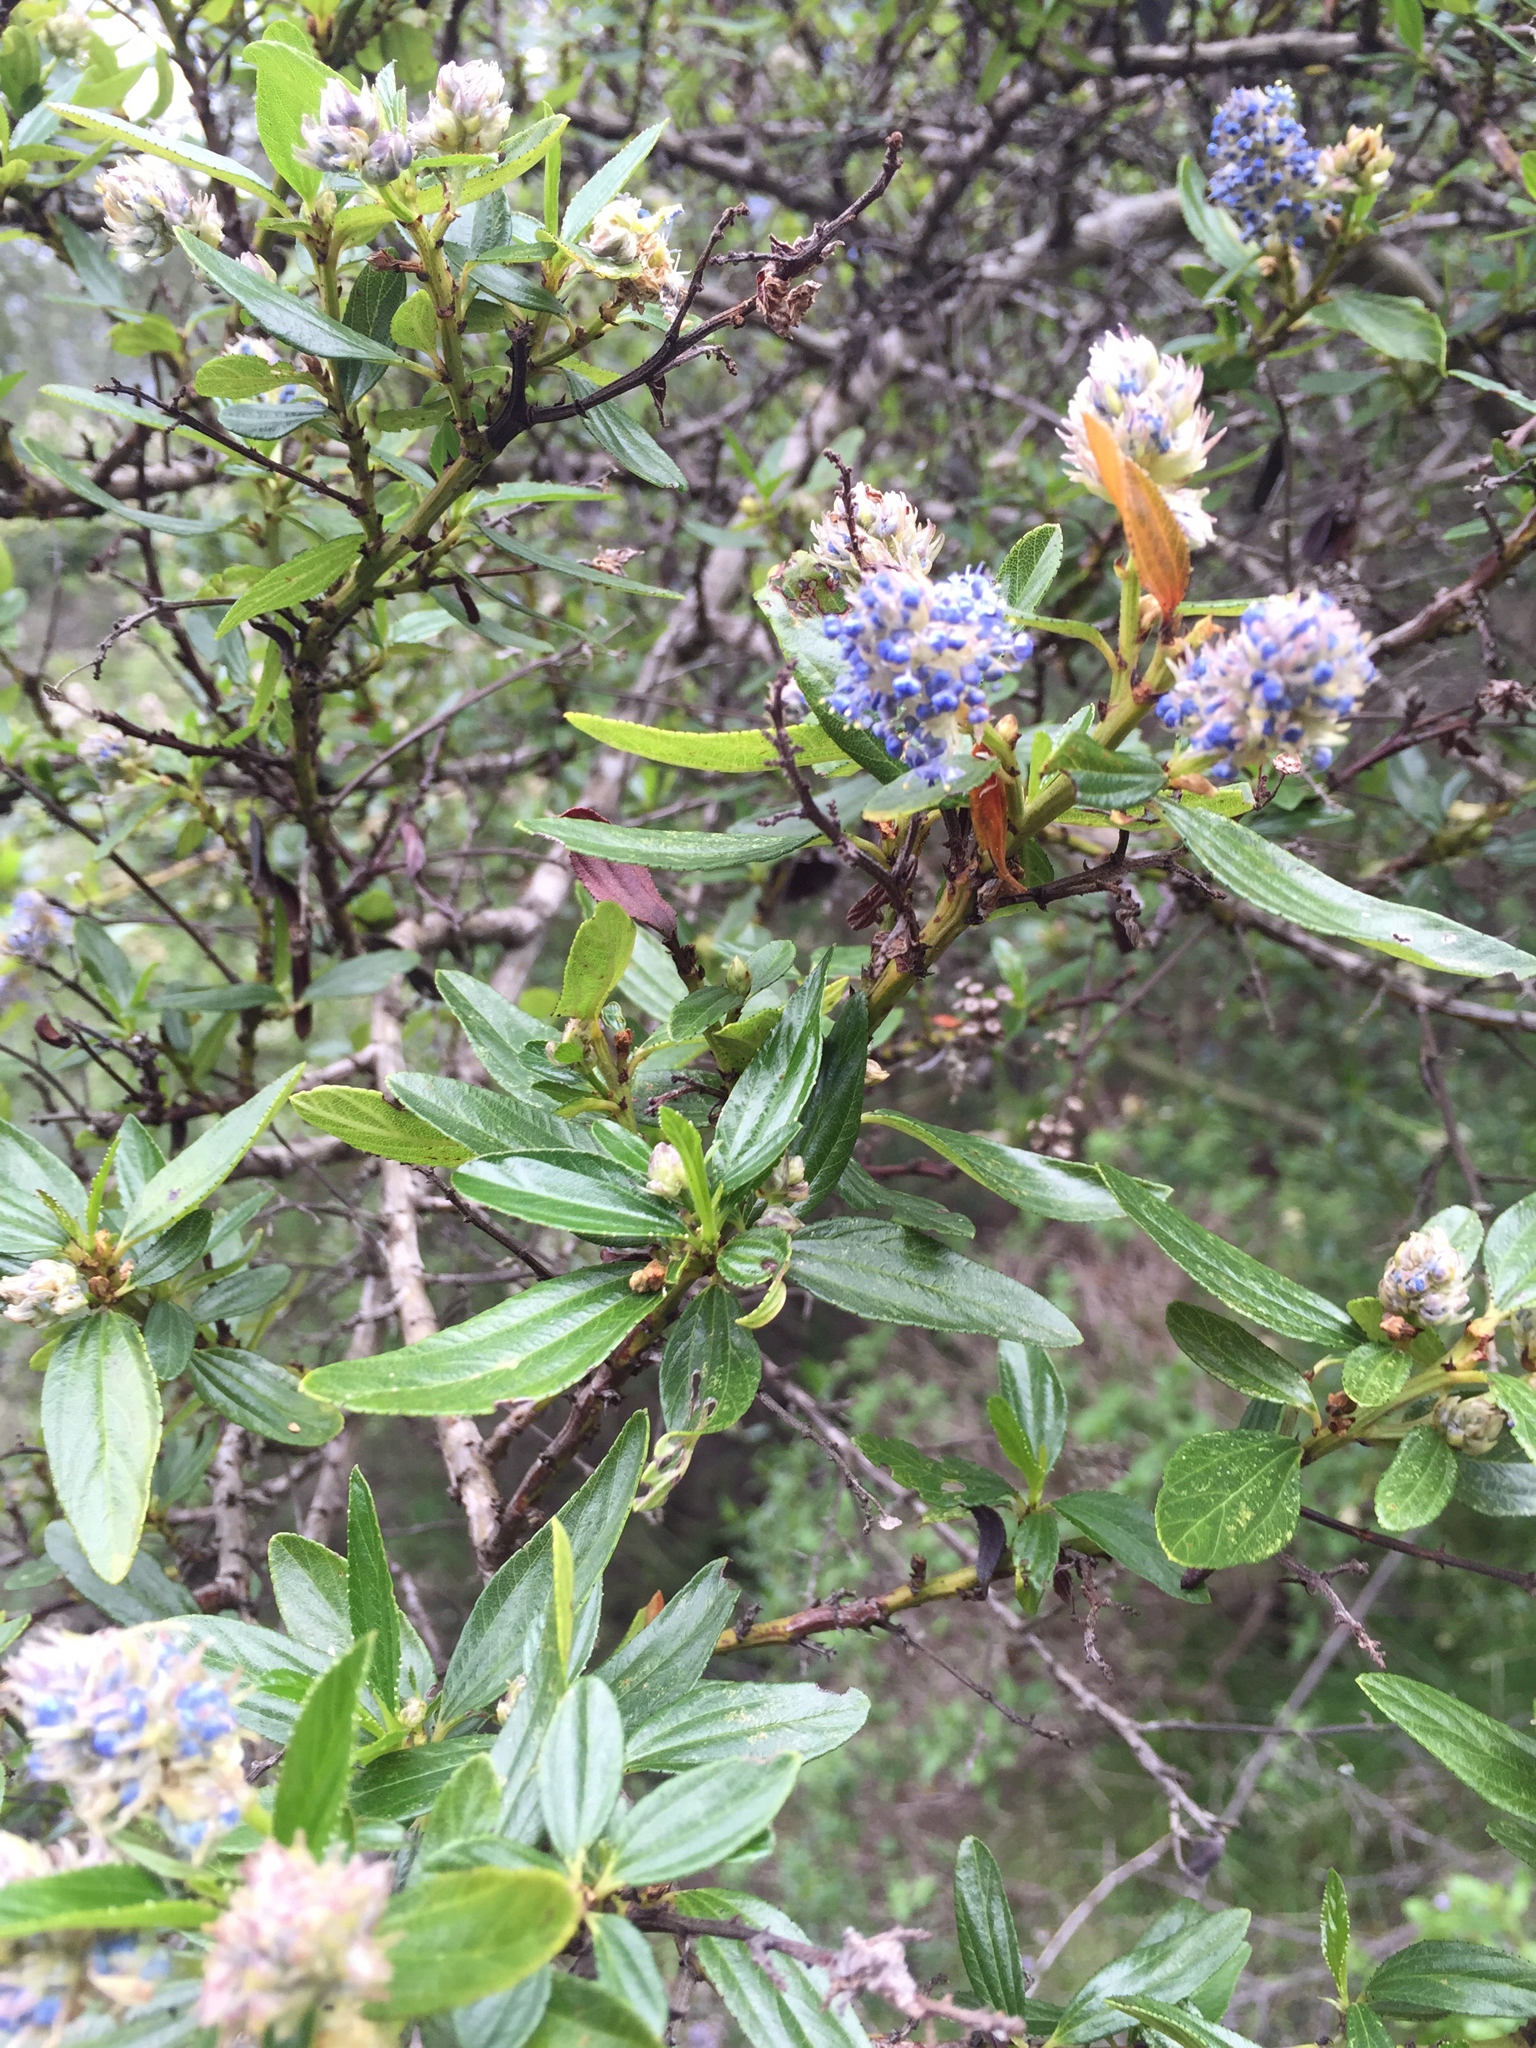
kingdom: Plantae
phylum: Tracheophyta
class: Magnoliopsida
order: Rosales
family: Rhamnaceae
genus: Ceanothus
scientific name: Ceanothus thyrsiflorus
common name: California-lilac
